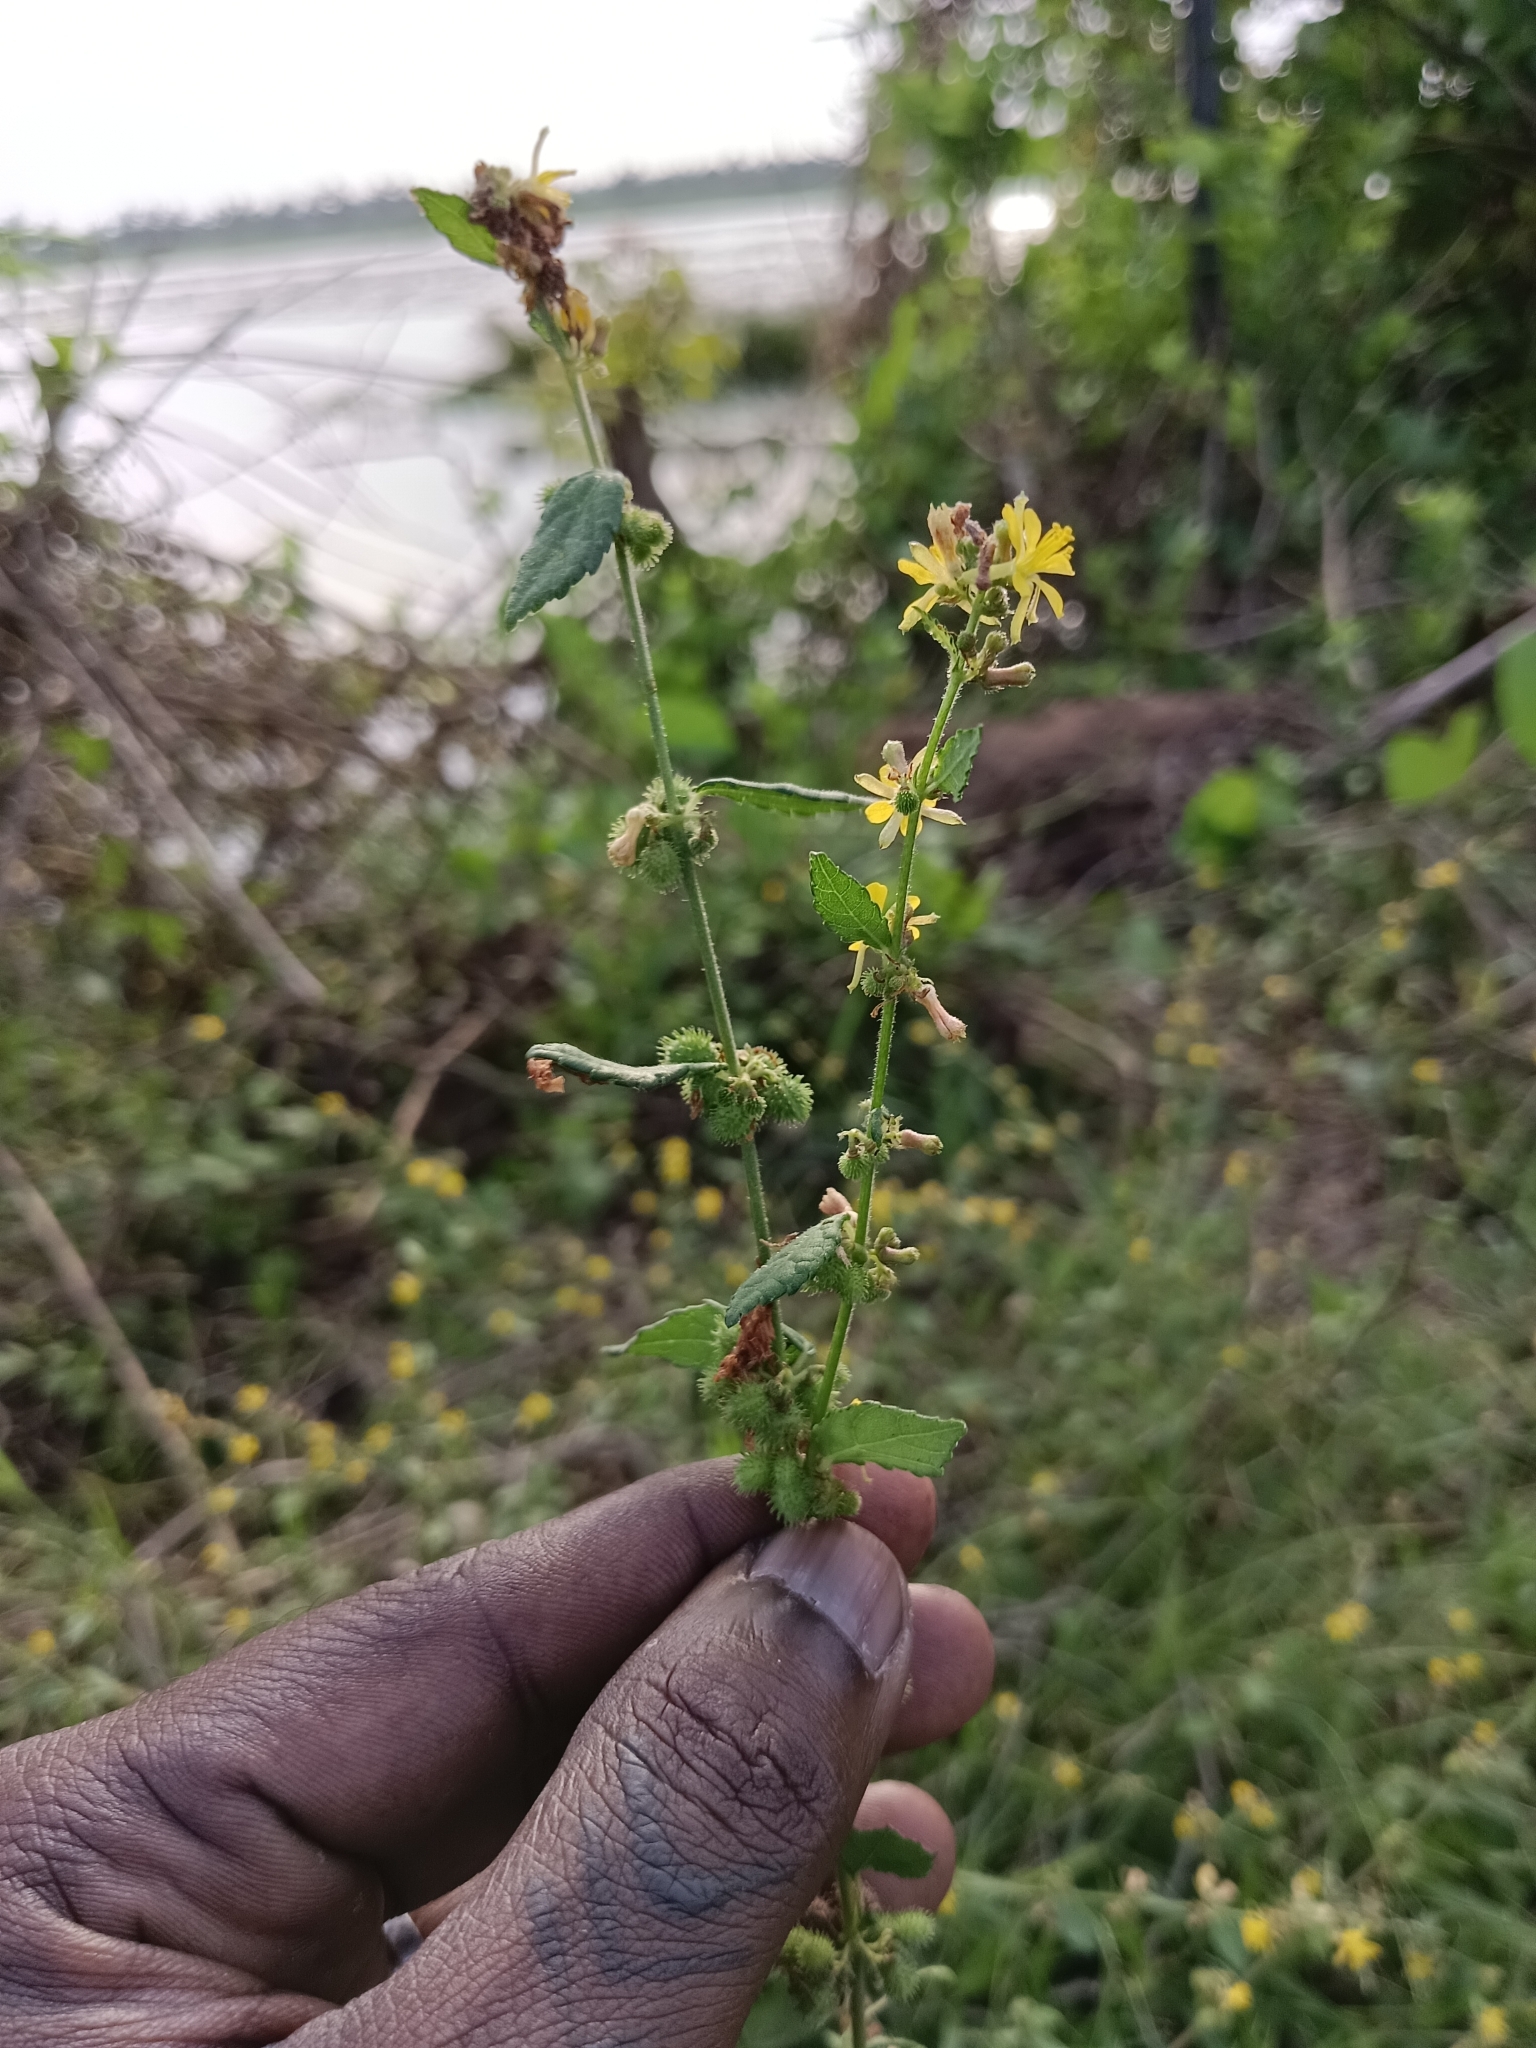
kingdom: Plantae
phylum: Tracheophyta
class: Magnoliopsida
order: Malvales
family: Malvaceae
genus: Triumfetta
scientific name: Triumfetta rhomboidea
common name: Diamond burbark
